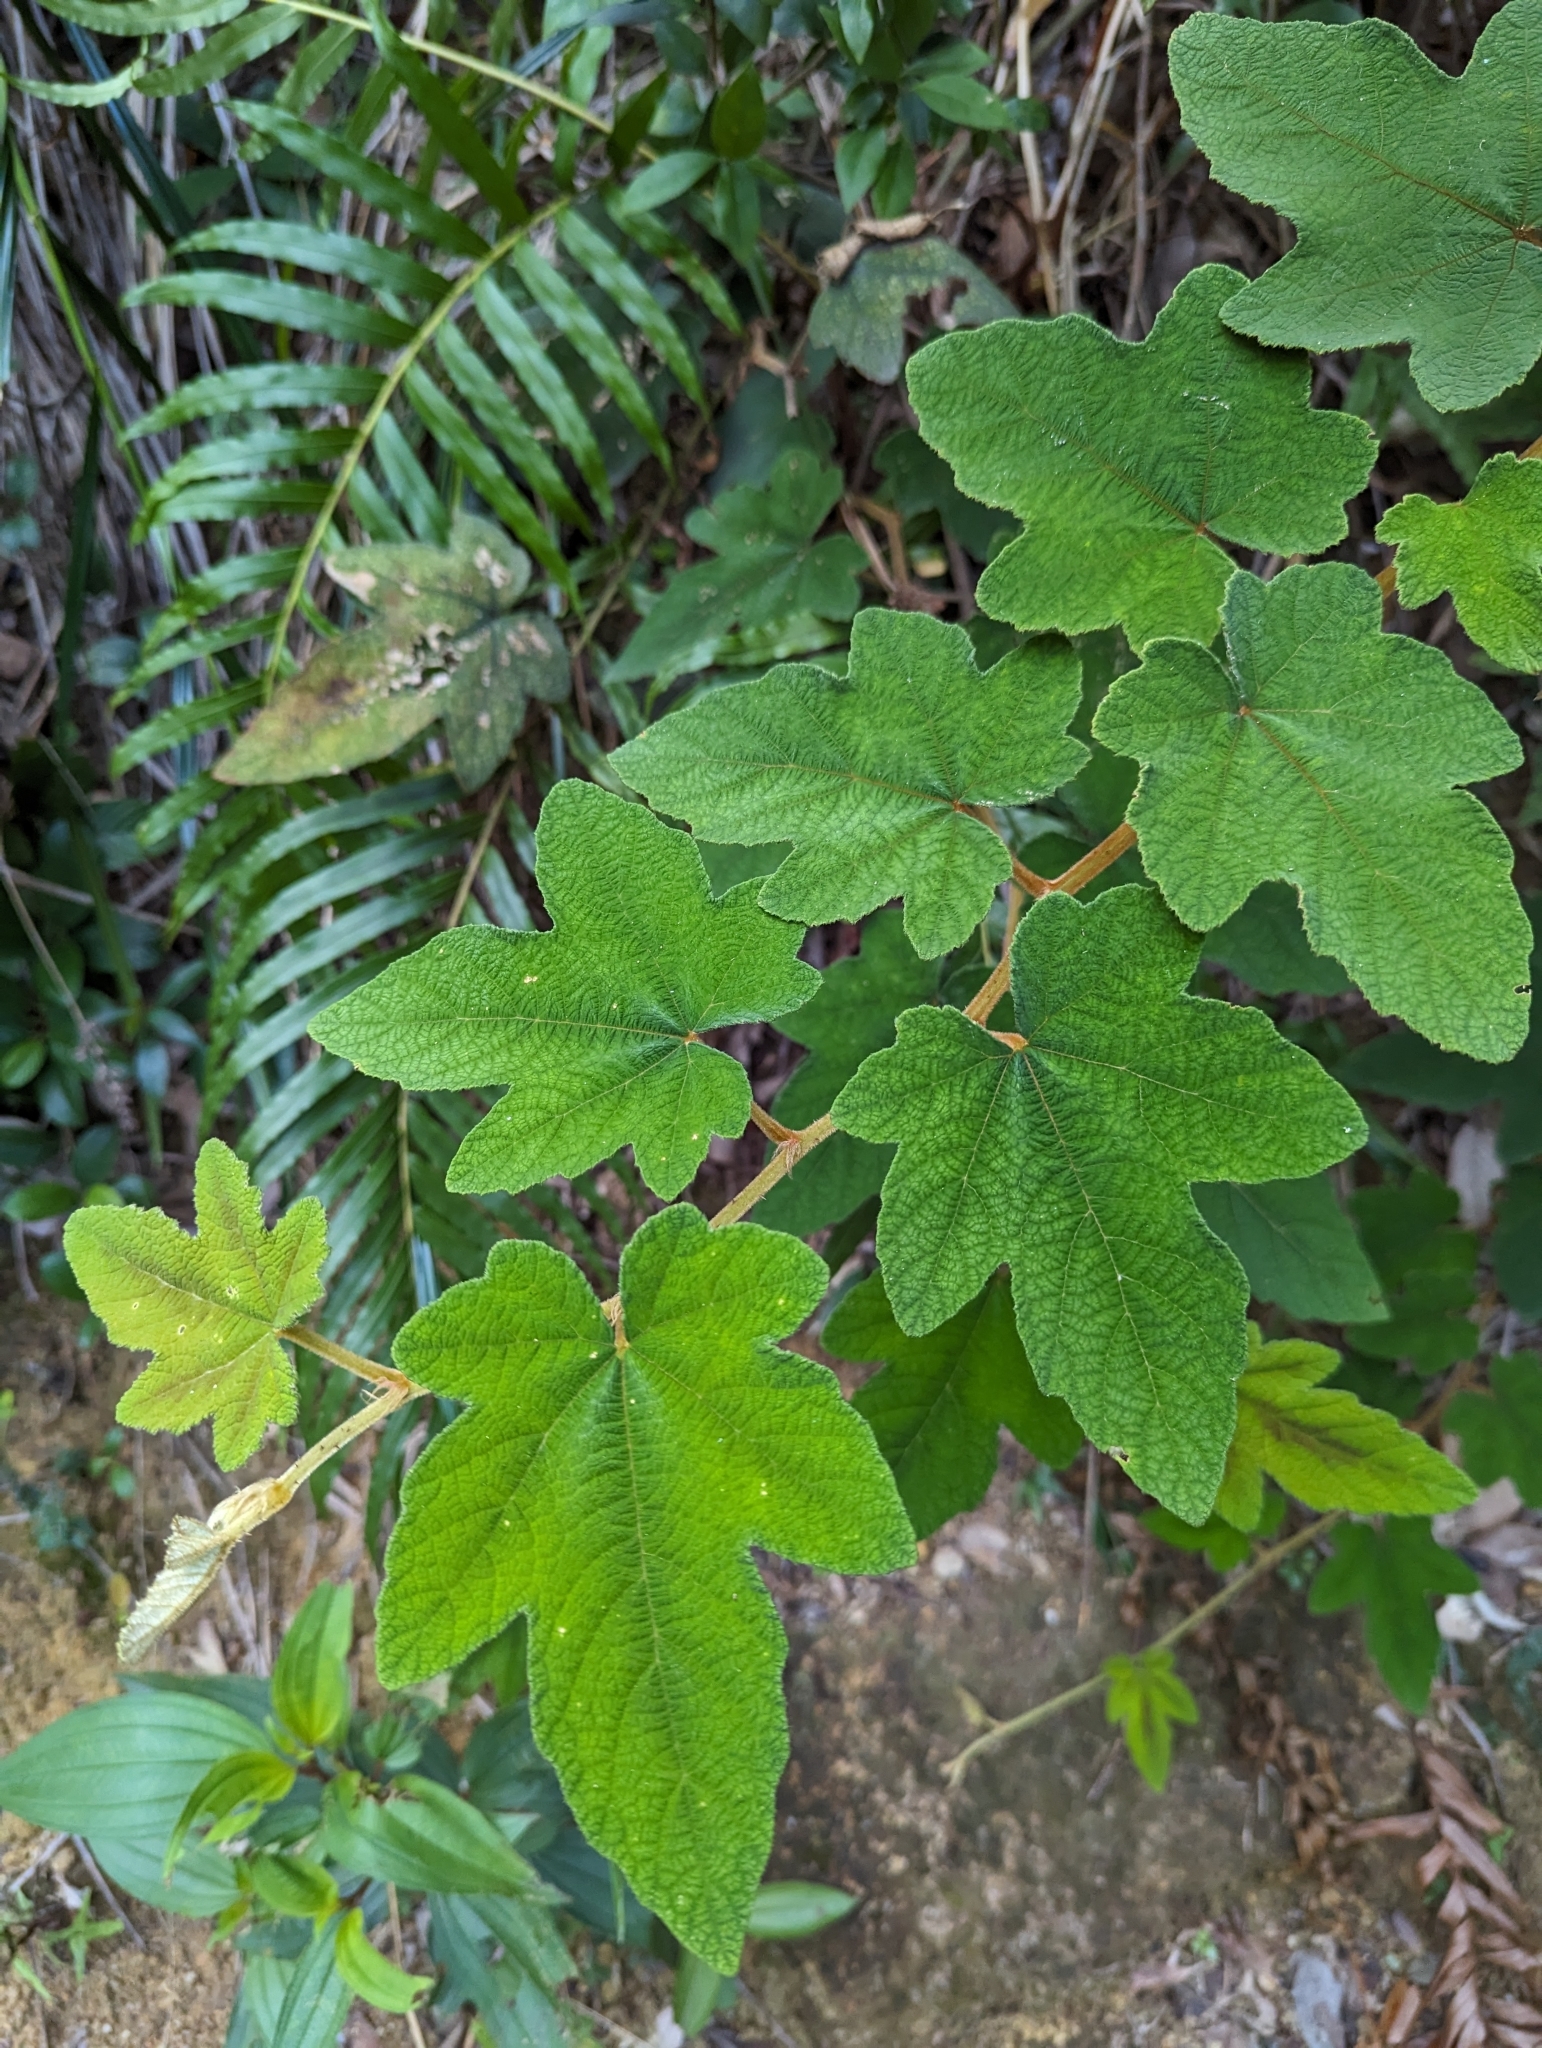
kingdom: Plantae
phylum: Tracheophyta
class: Magnoliopsida
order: Rosales
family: Rosaceae
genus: Rubus
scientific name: Rubus reflexus
